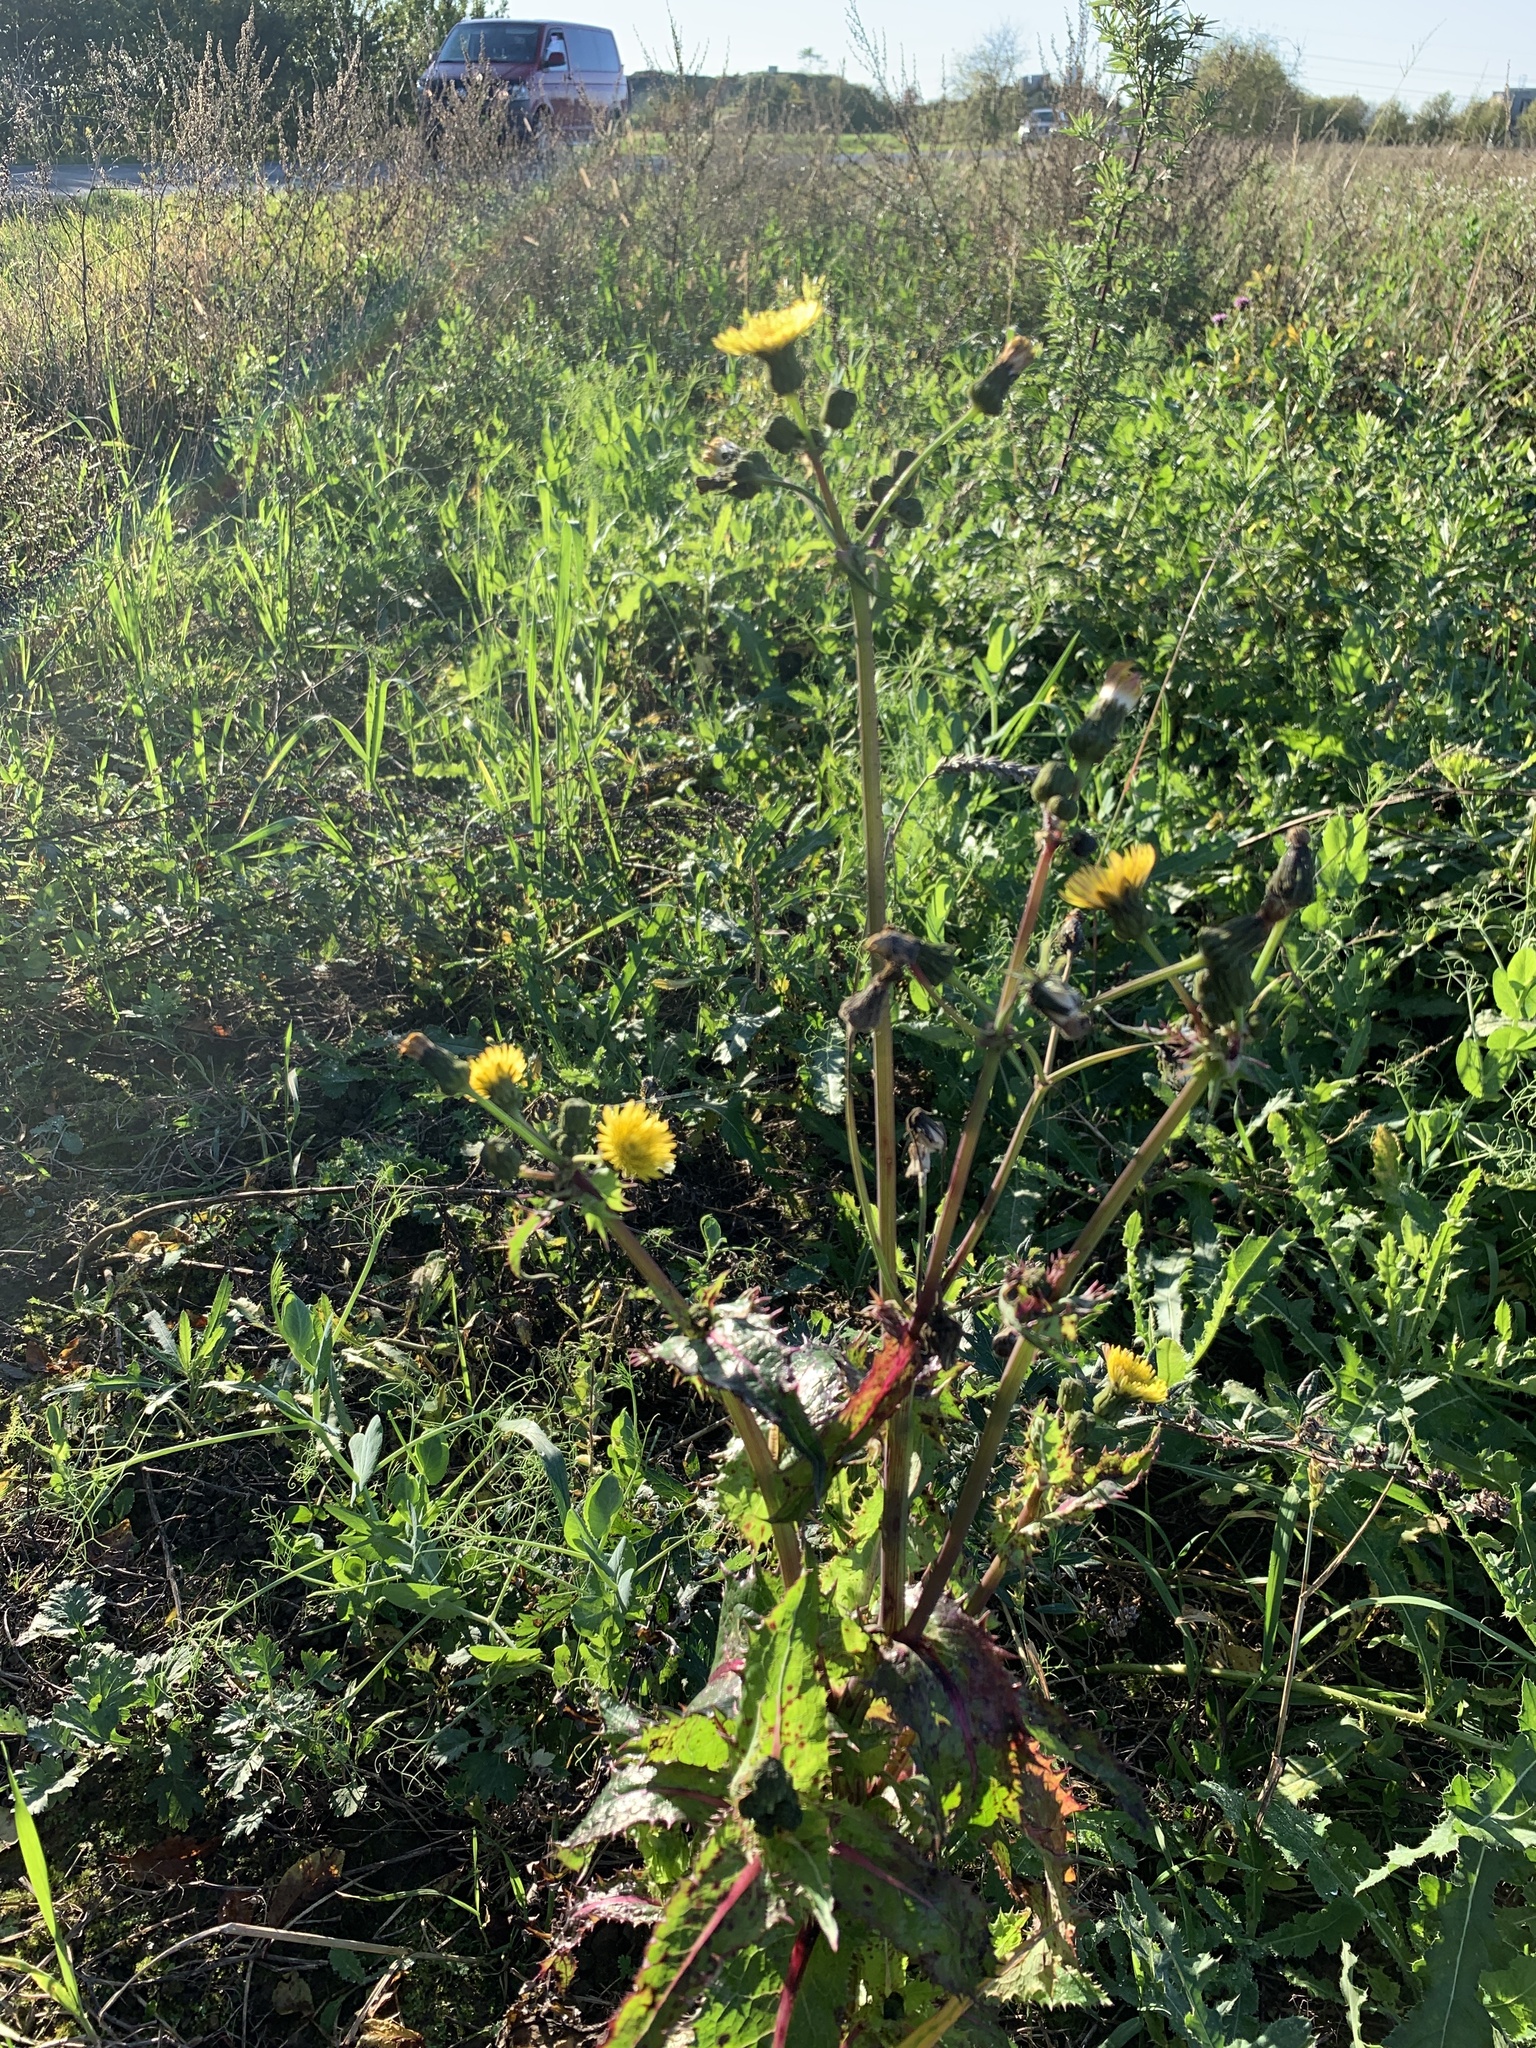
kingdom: Plantae
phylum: Tracheophyta
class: Magnoliopsida
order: Asterales
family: Asteraceae
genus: Sonchus
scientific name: Sonchus oleraceus
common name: Common sowthistle
